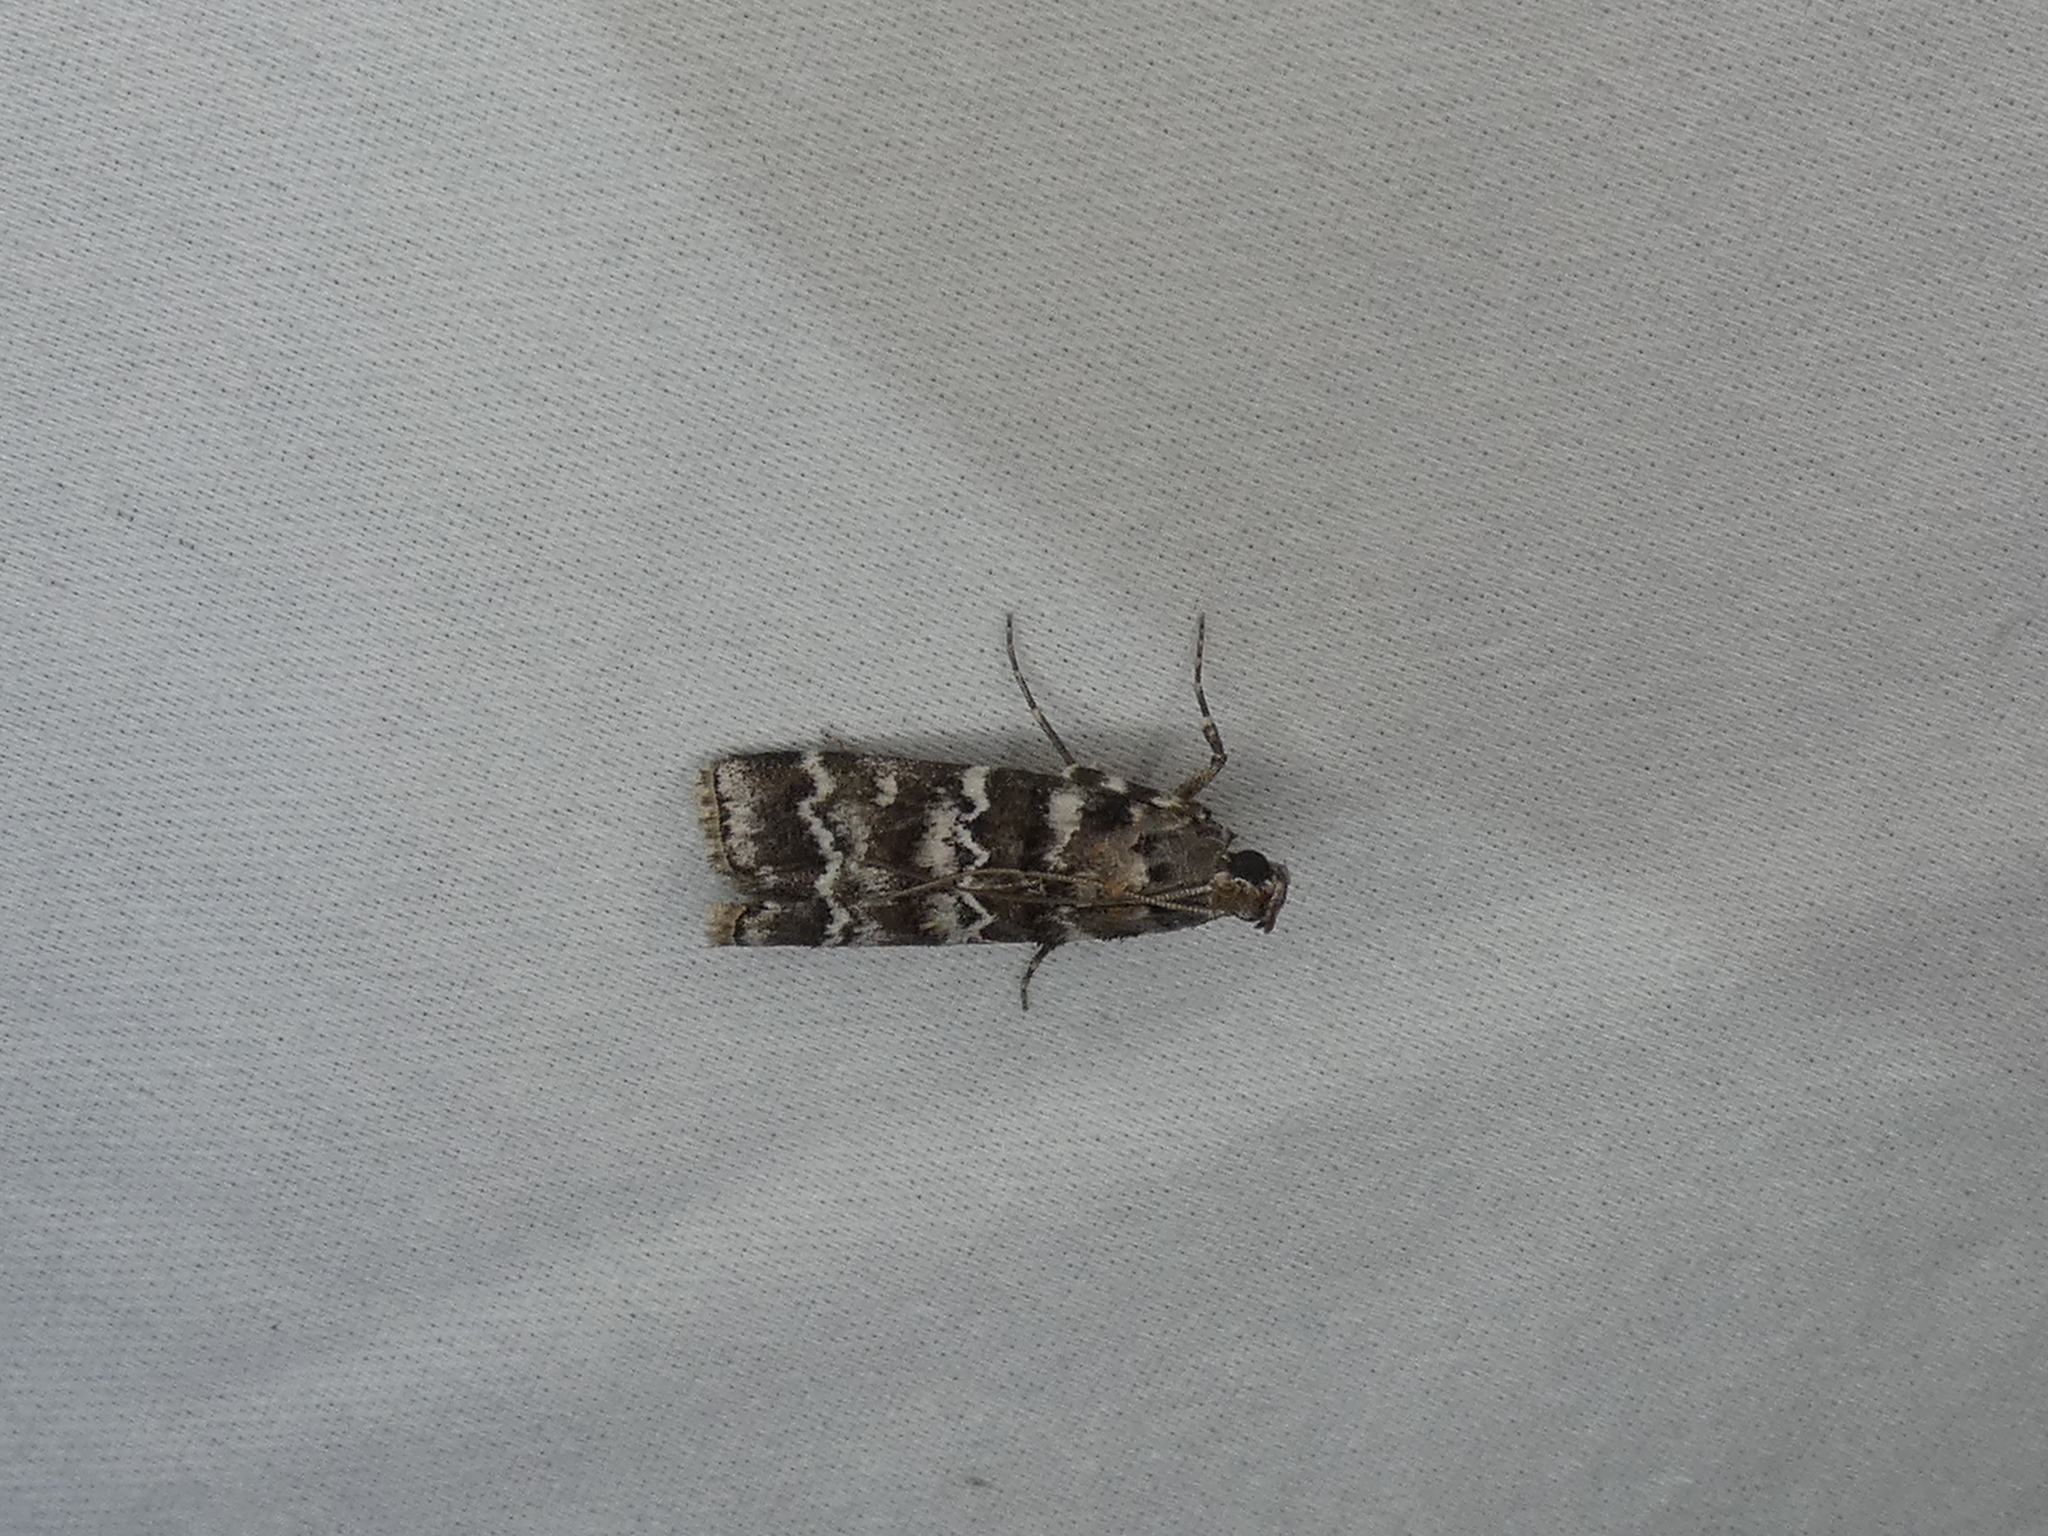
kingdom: Animalia
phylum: Arthropoda
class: Insecta
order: Lepidoptera
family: Pyralidae
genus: Dioryctria
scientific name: Dioryctria amatella
